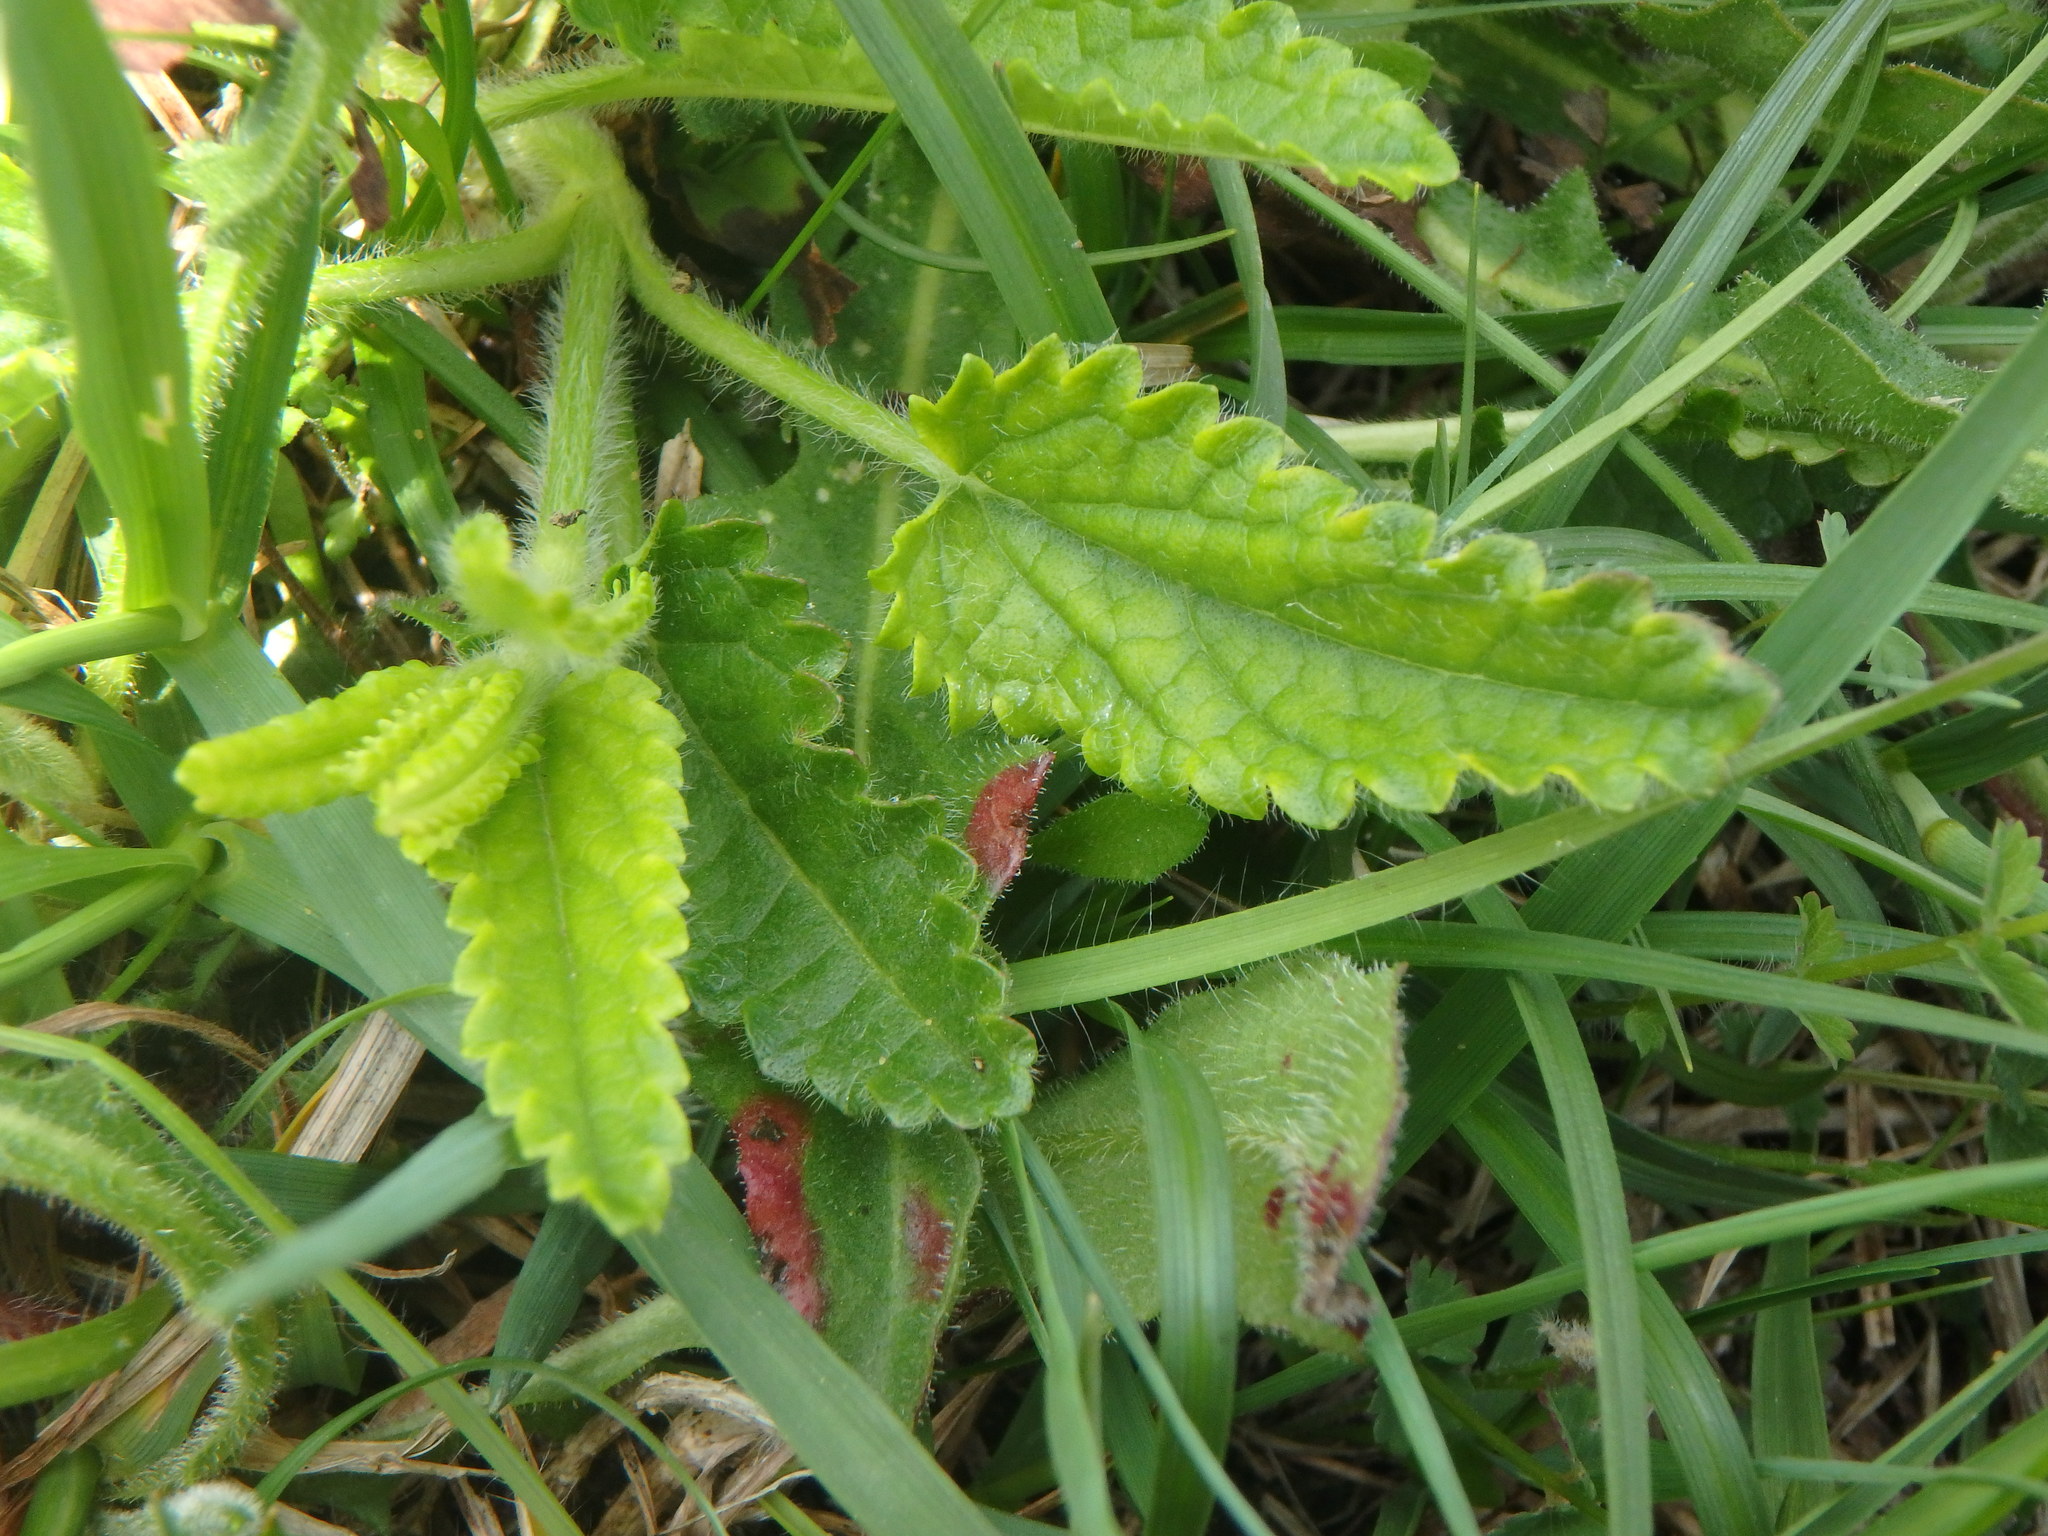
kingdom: Plantae
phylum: Tracheophyta
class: Magnoliopsida
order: Lamiales
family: Lamiaceae
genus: Betonica
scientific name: Betonica officinalis
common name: Bishop's-wort
